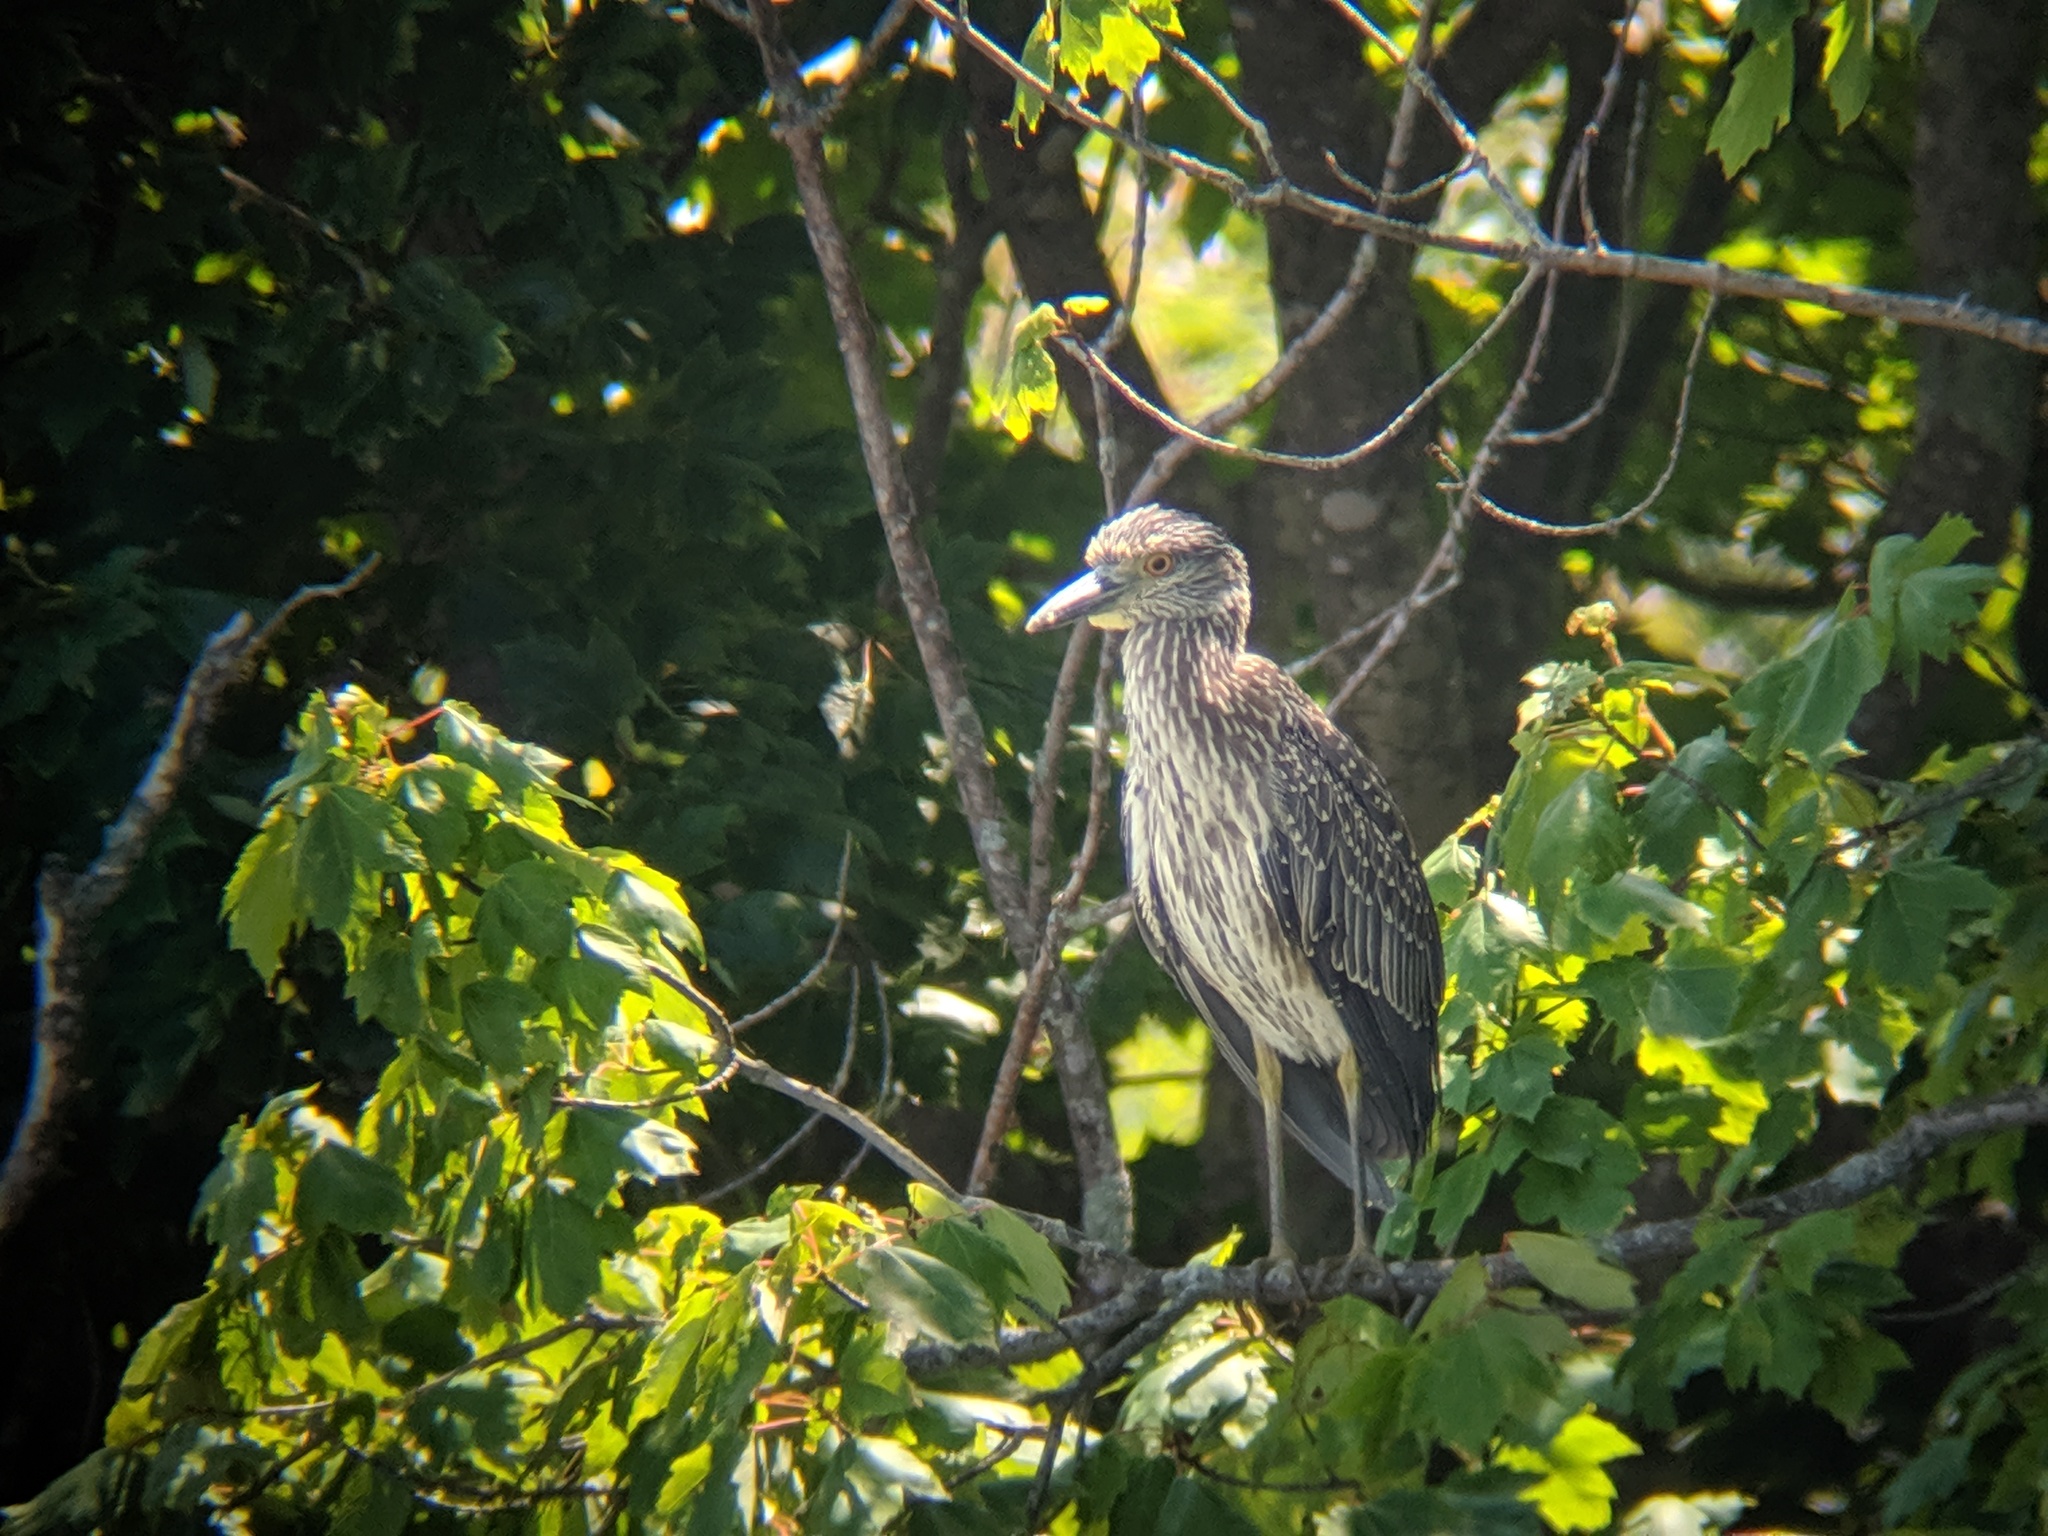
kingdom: Animalia
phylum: Chordata
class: Aves
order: Pelecaniformes
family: Ardeidae
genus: Nyctanassa
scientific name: Nyctanassa violacea
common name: Yellow-crowned night heron
